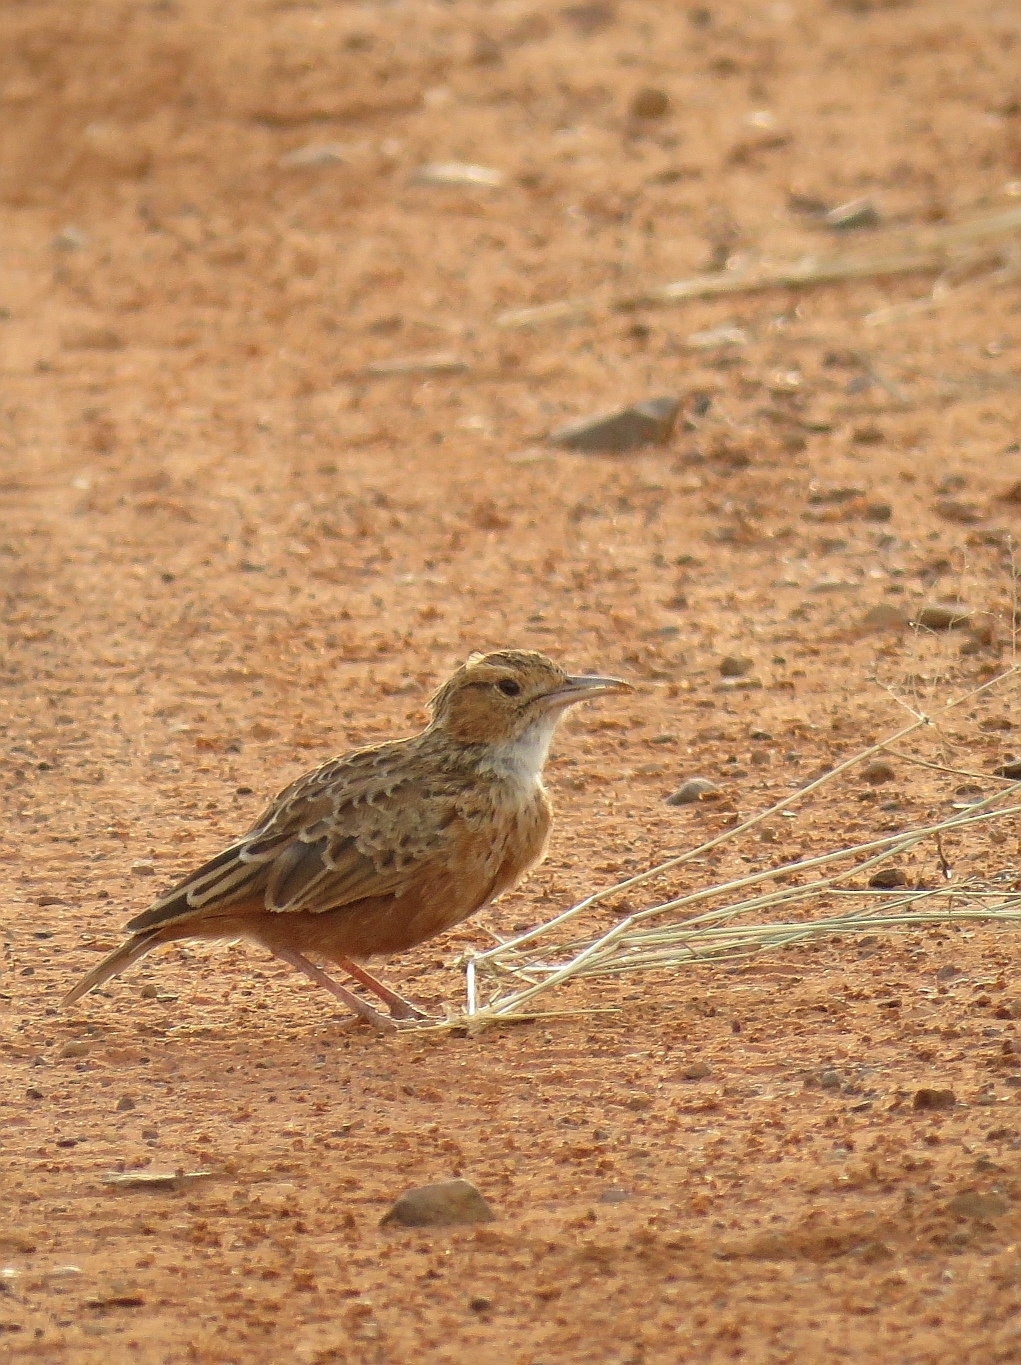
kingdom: Animalia
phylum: Chordata
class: Aves
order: Passeriformes
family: Alaudidae
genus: Chersomanes
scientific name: Chersomanes albofasciata
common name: Spike-heeled lark
